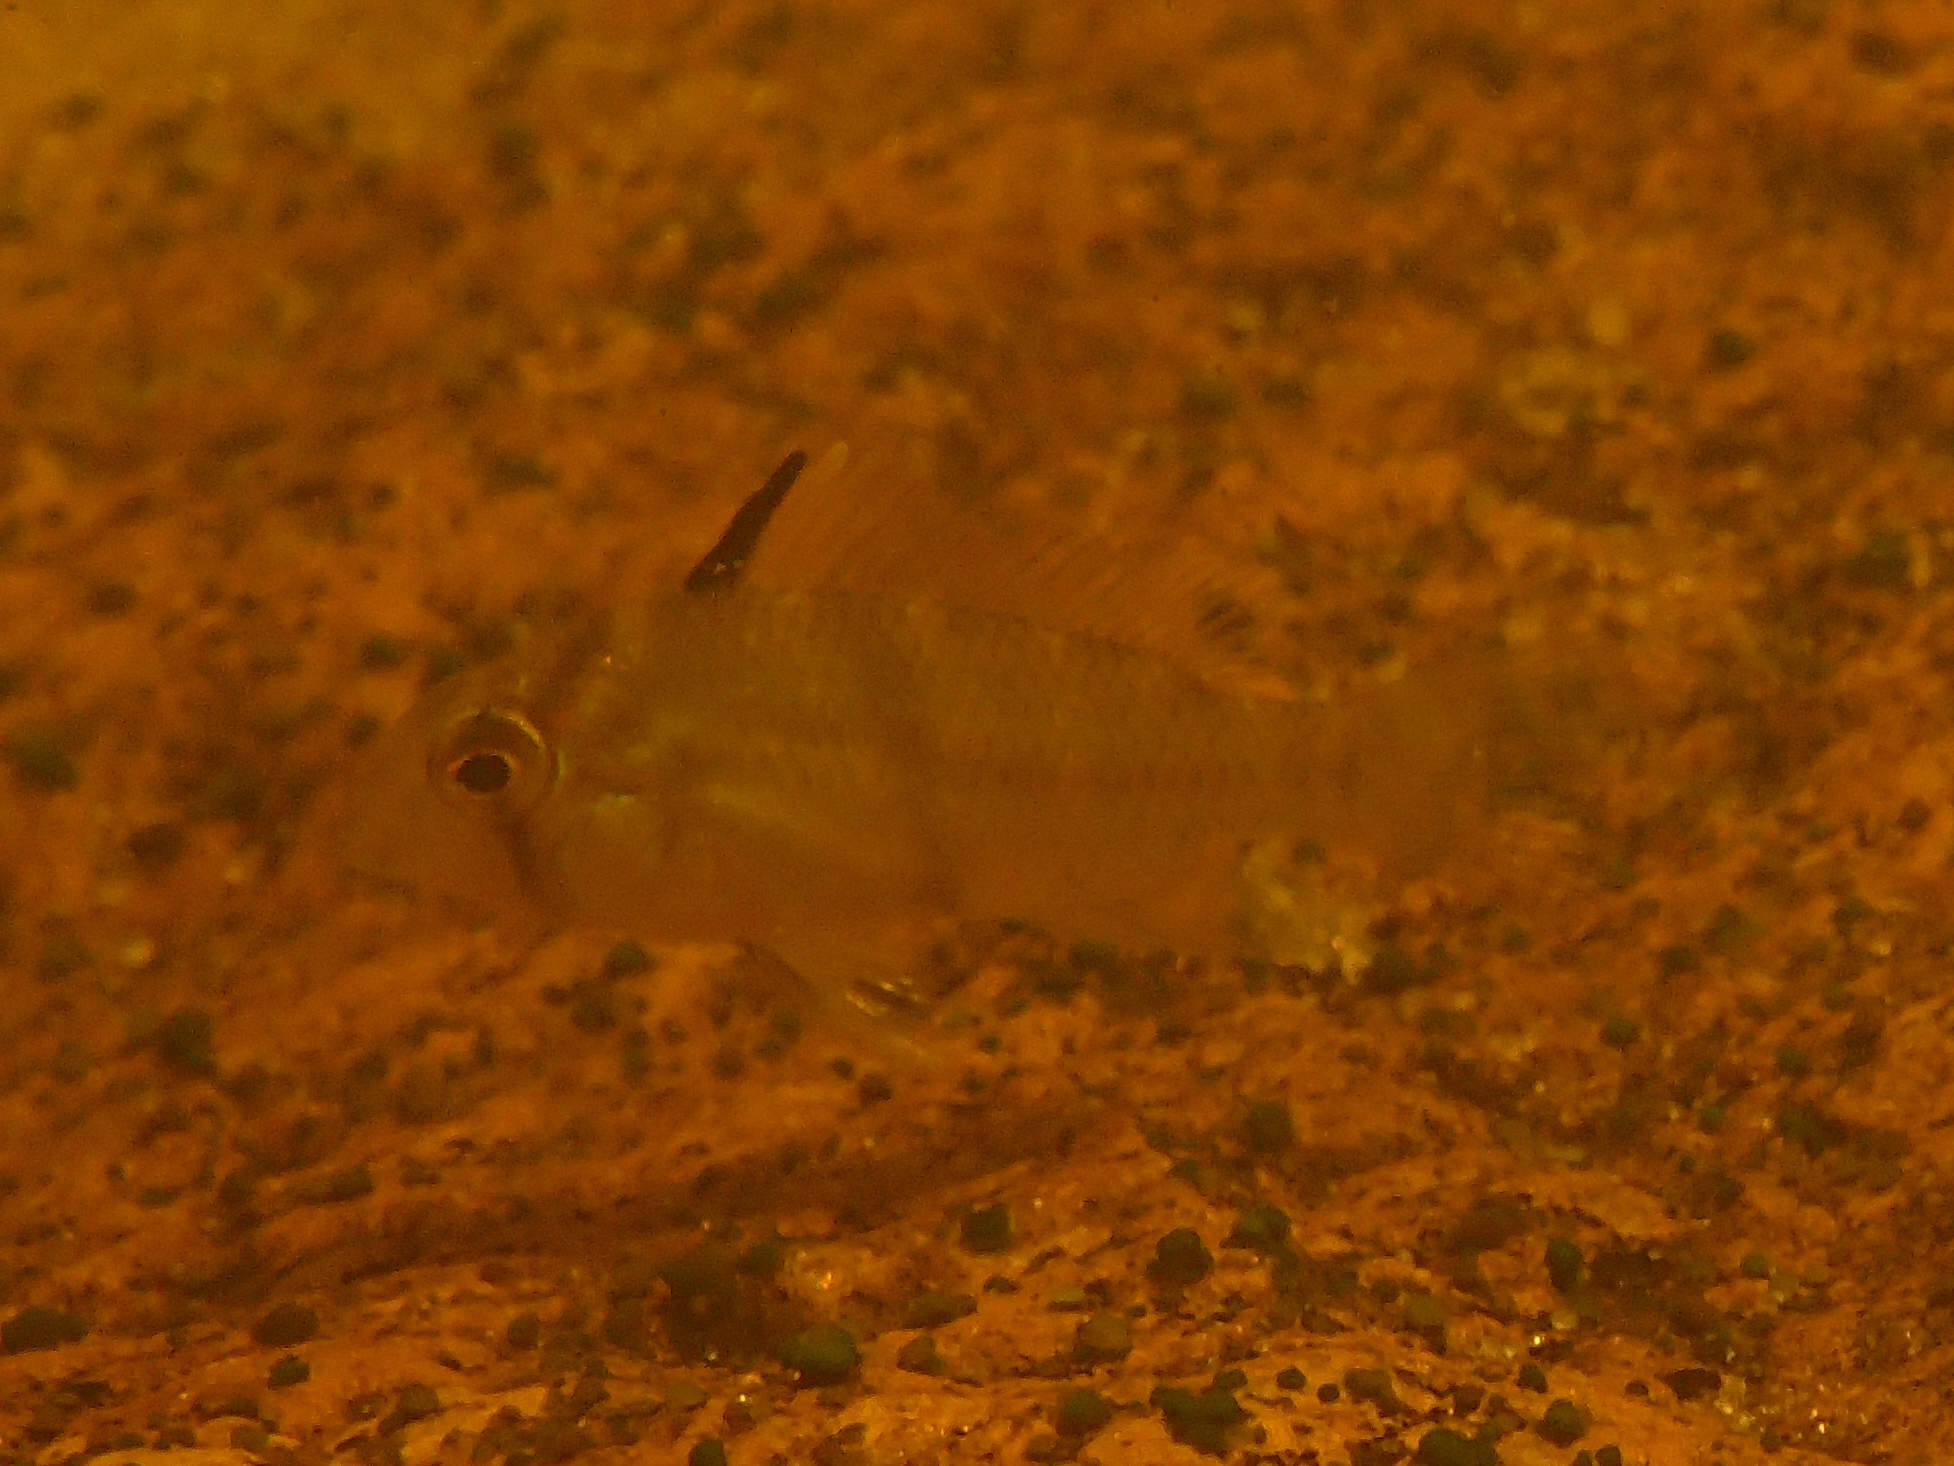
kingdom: Animalia
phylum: Chordata
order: Perciformes
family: Cichlidae
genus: Guianacara
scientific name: Guianacara owroewefi
